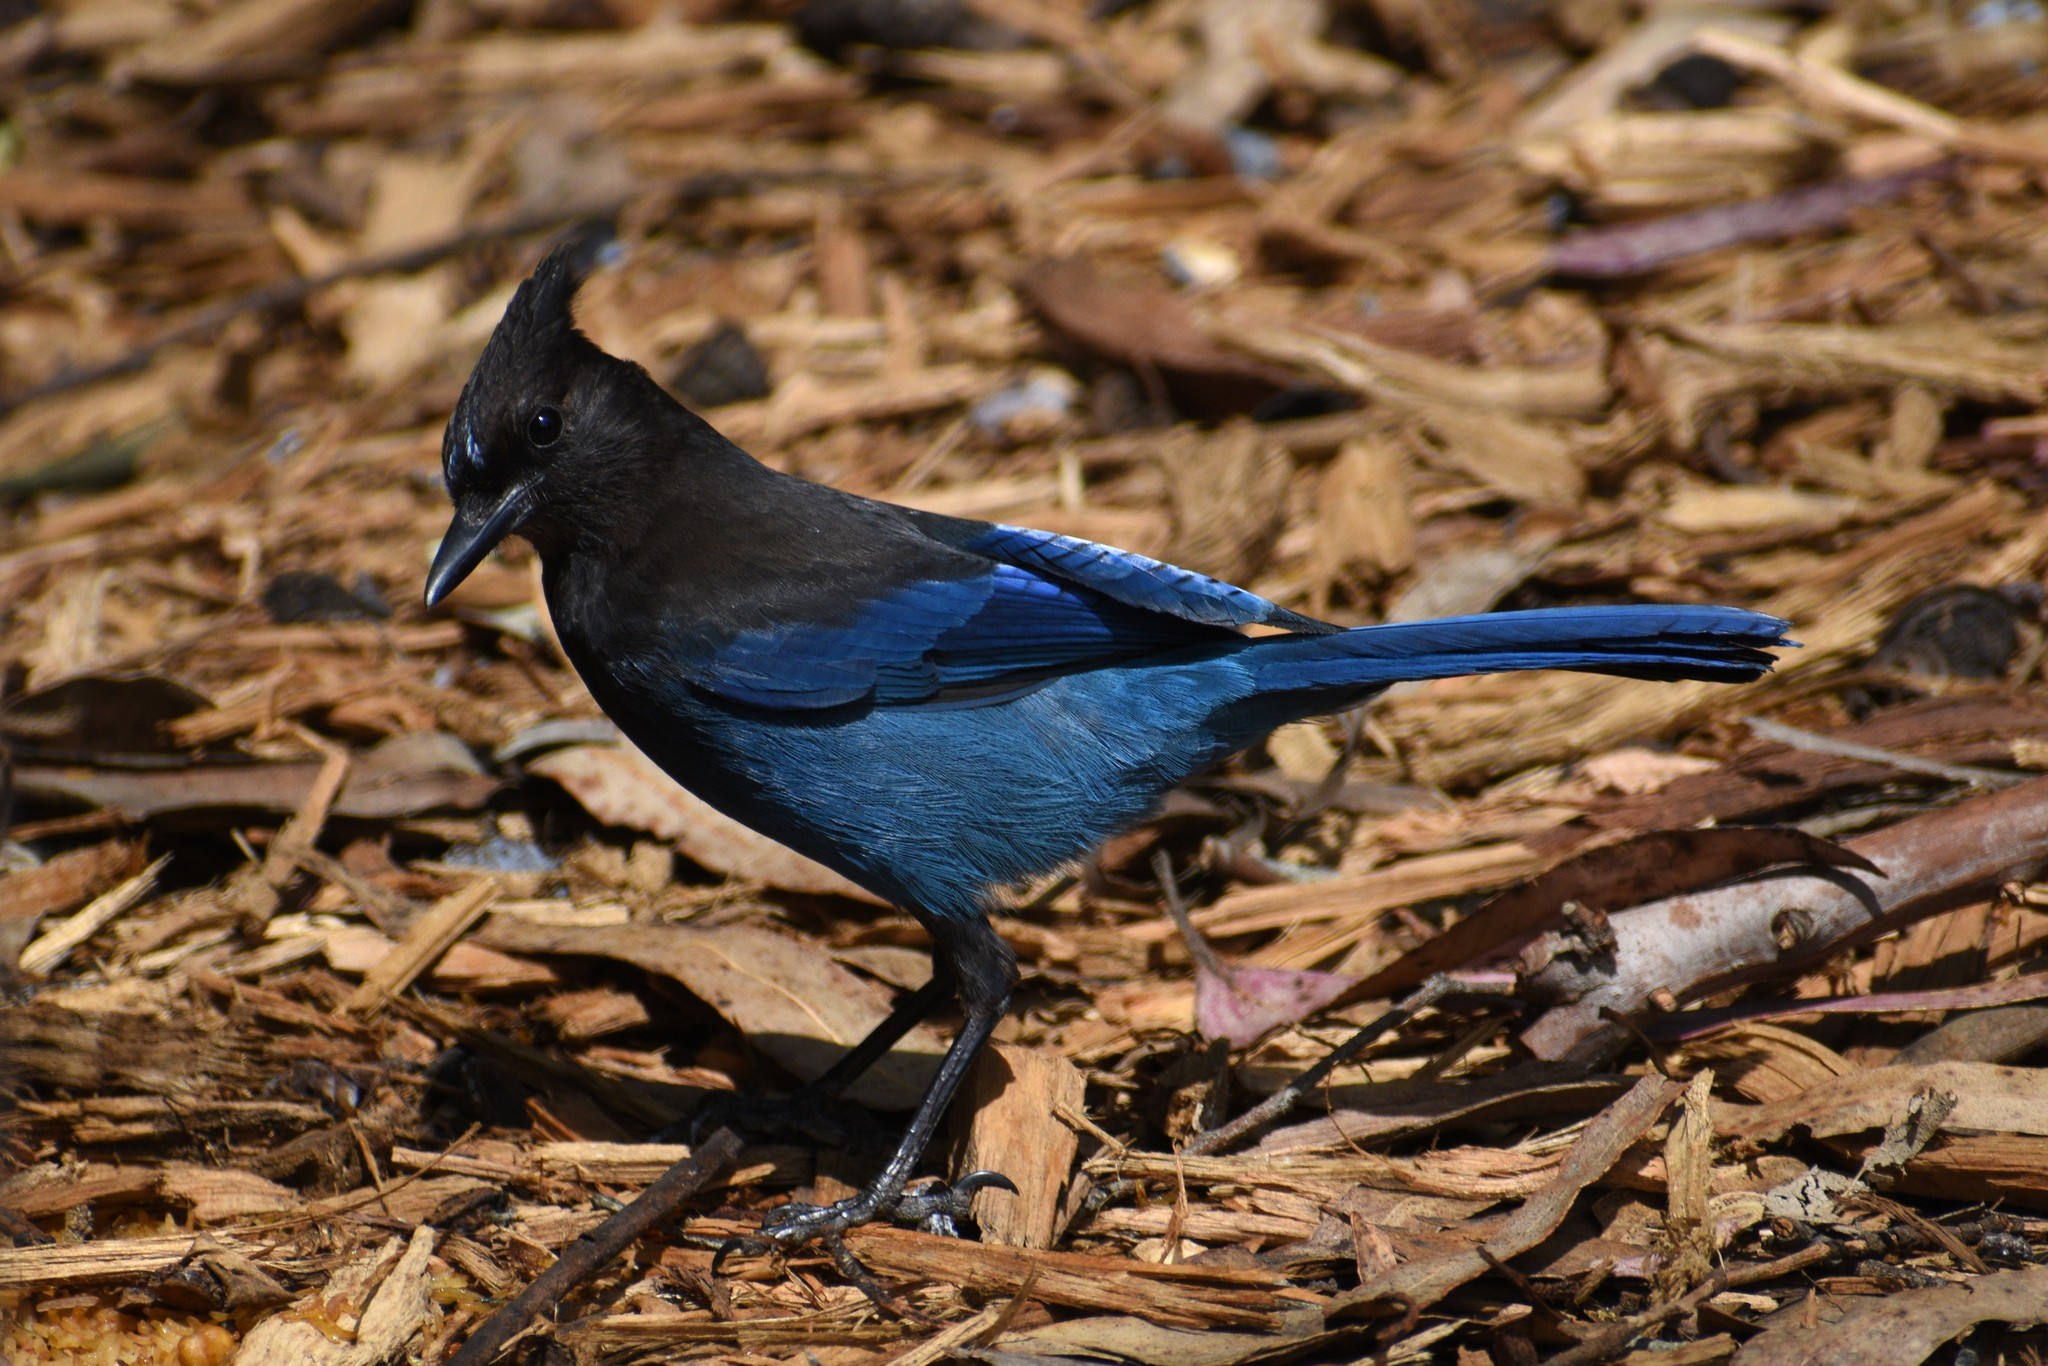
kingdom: Animalia
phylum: Chordata
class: Aves
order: Passeriformes
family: Corvidae
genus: Cyanocitta
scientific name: Cyanocitta stelleri
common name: Steller's jay
